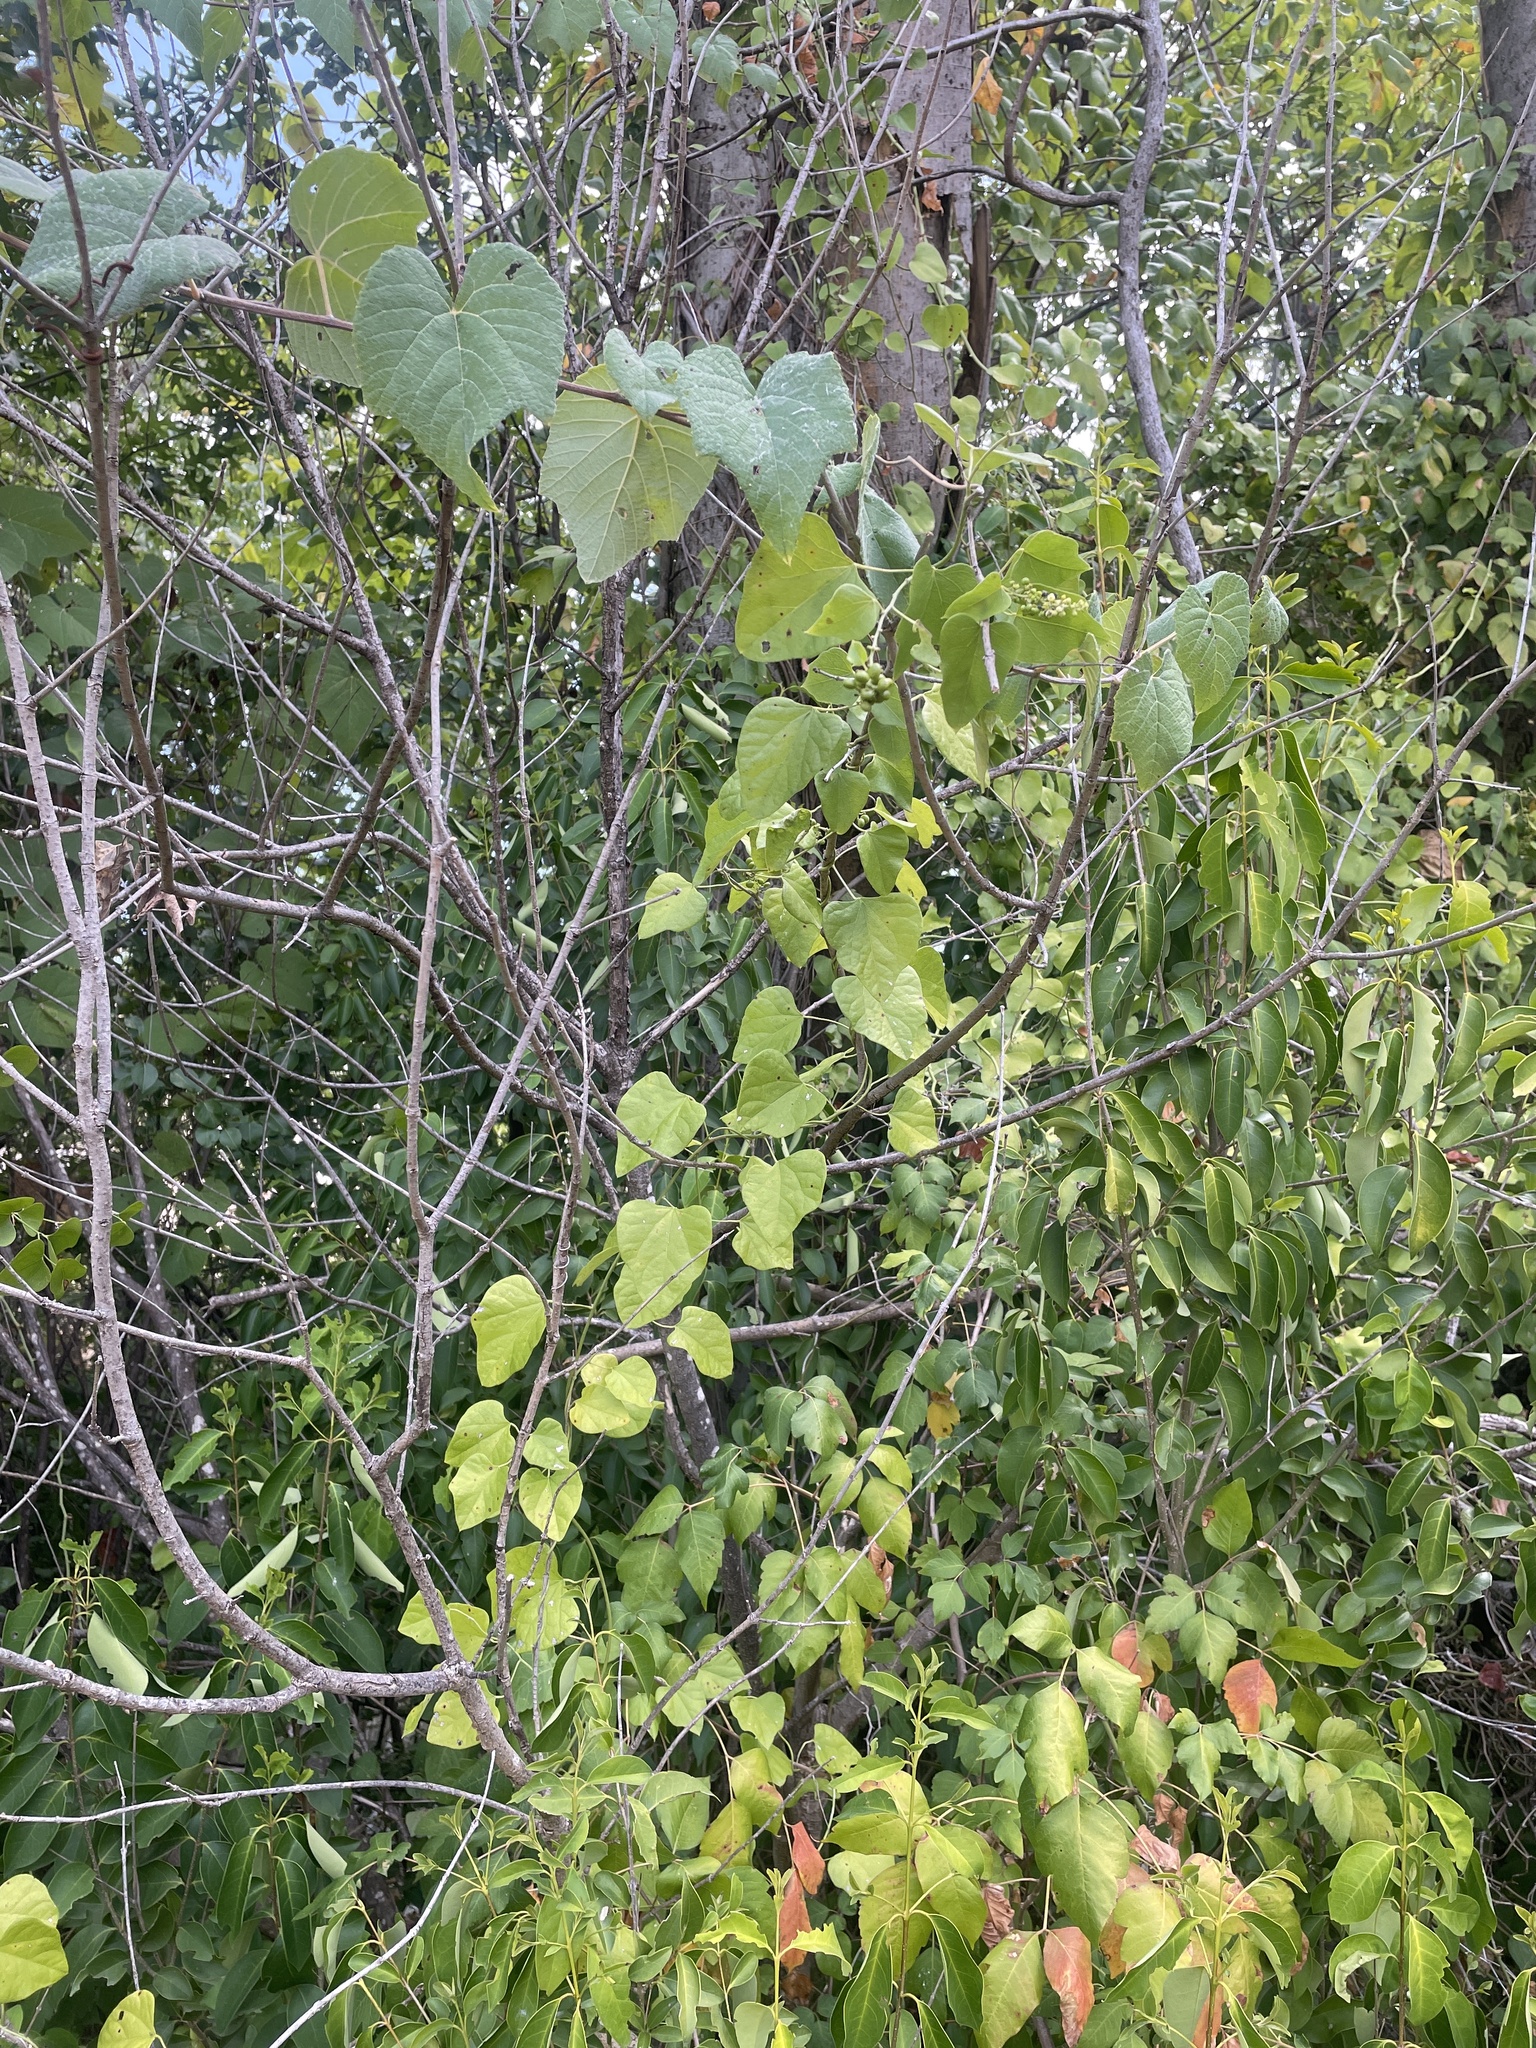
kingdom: Plantae
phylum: Tracheophyta
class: Magnoliopsida
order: Ranunculales
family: Menispermaceae
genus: Cocculus
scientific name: Cocculus carolinus
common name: Carolina moonseed
